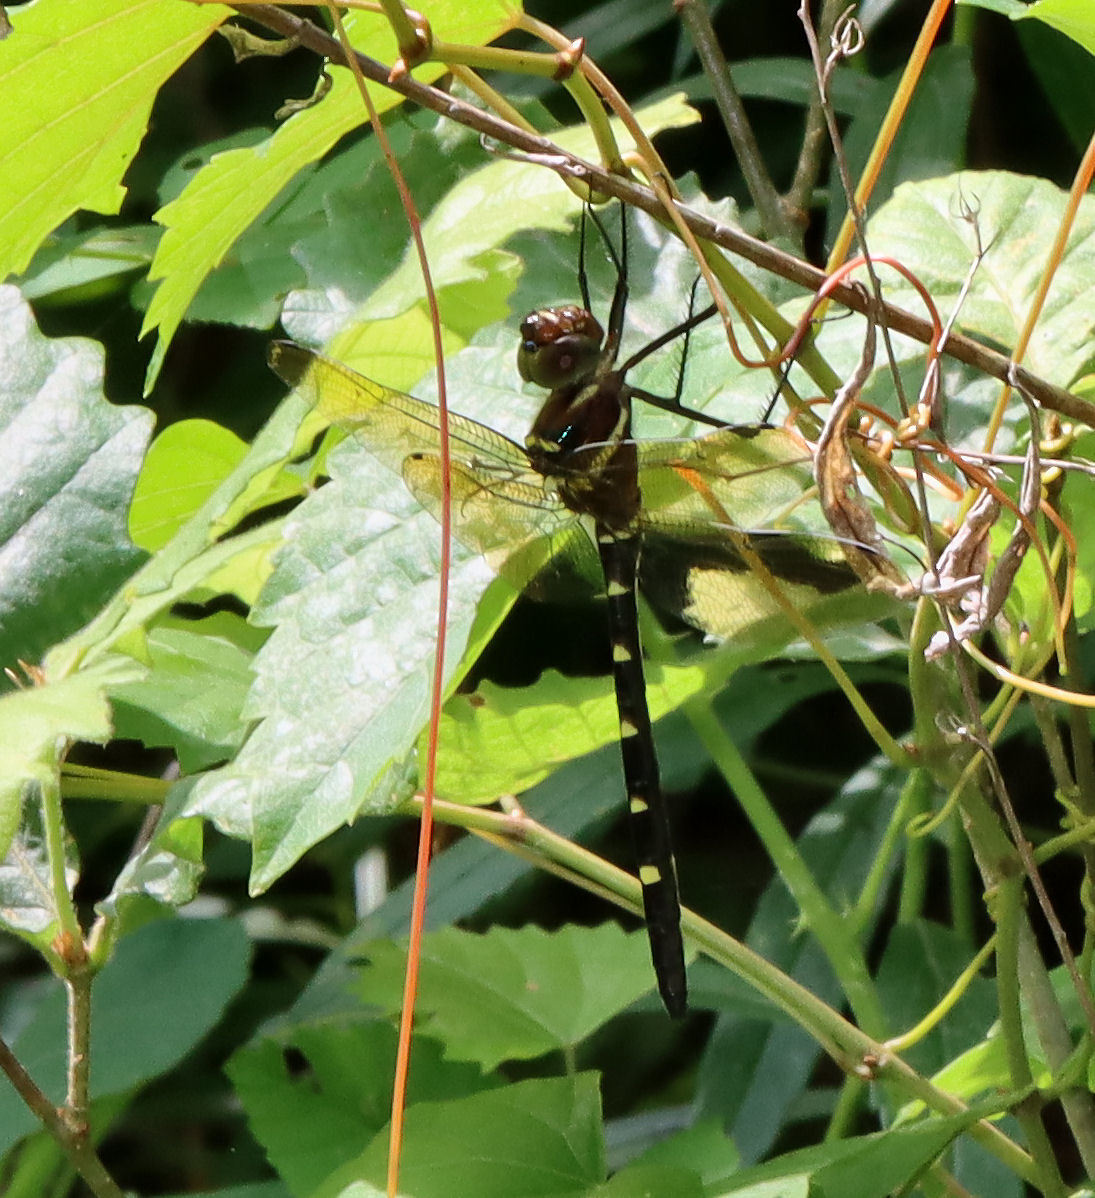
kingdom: Animalia
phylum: Arthropoda
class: Insecta
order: Odonata
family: Macromiidae
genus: Macromia
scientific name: Macromia taeniolata
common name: Royal river cruiser
